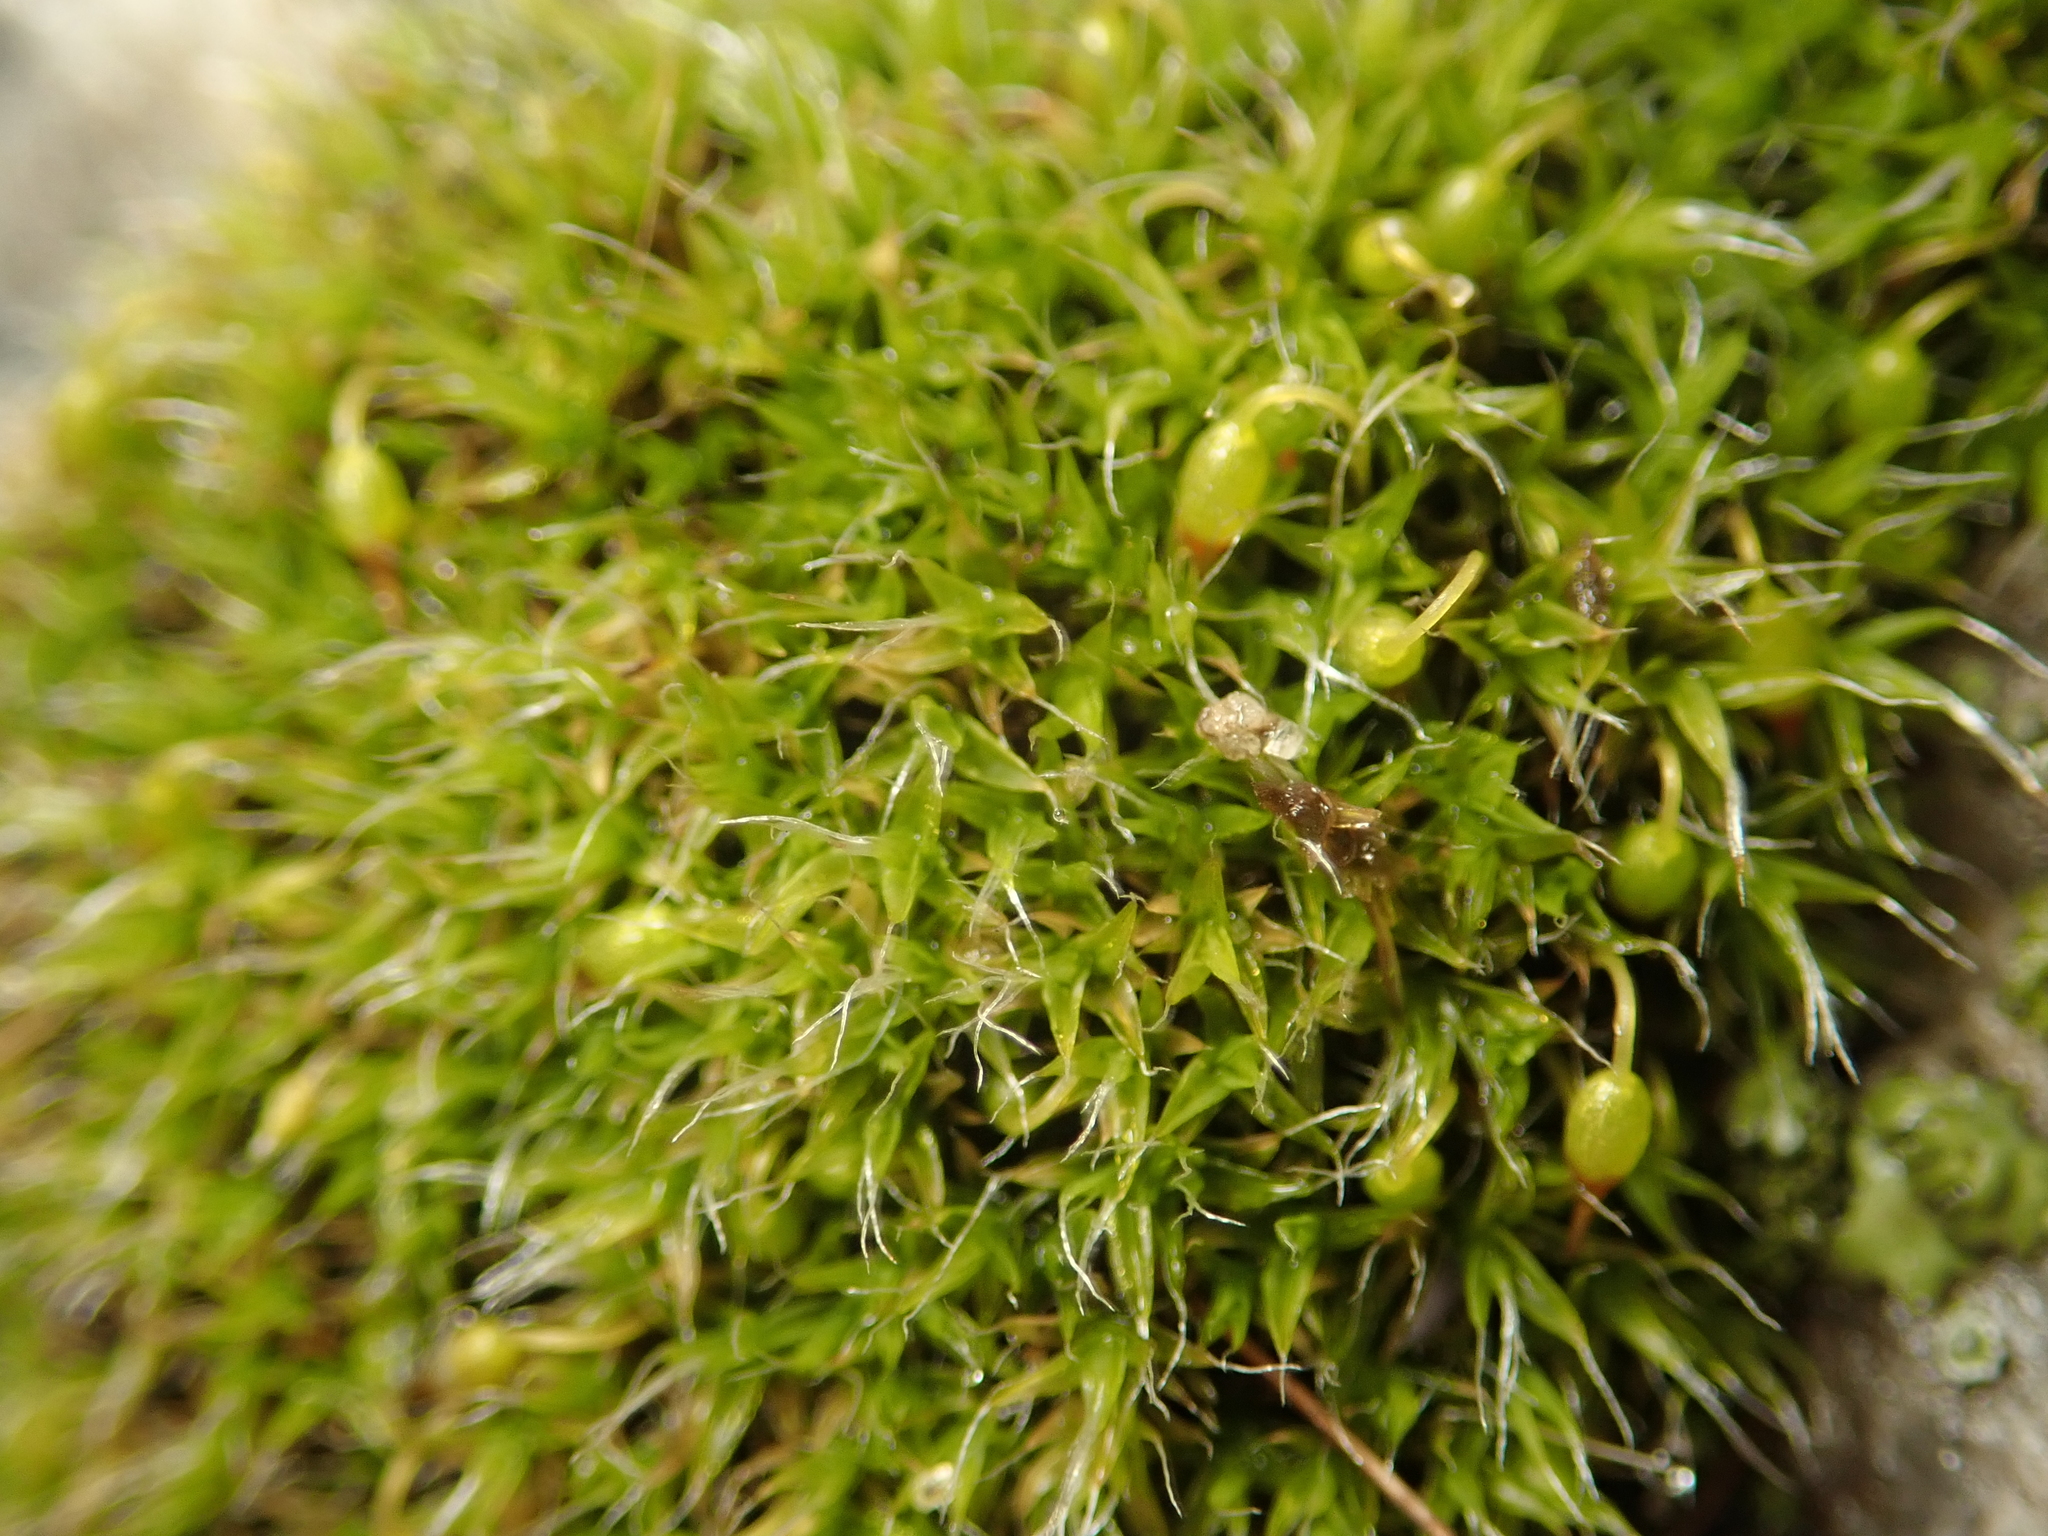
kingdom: Plantae
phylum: Bryophyta
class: Bryopsida
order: Grimmiales
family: Grimmiaceae
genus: Grimmia
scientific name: Grimmia pulvinata
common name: Grey-cushioned grimmia
